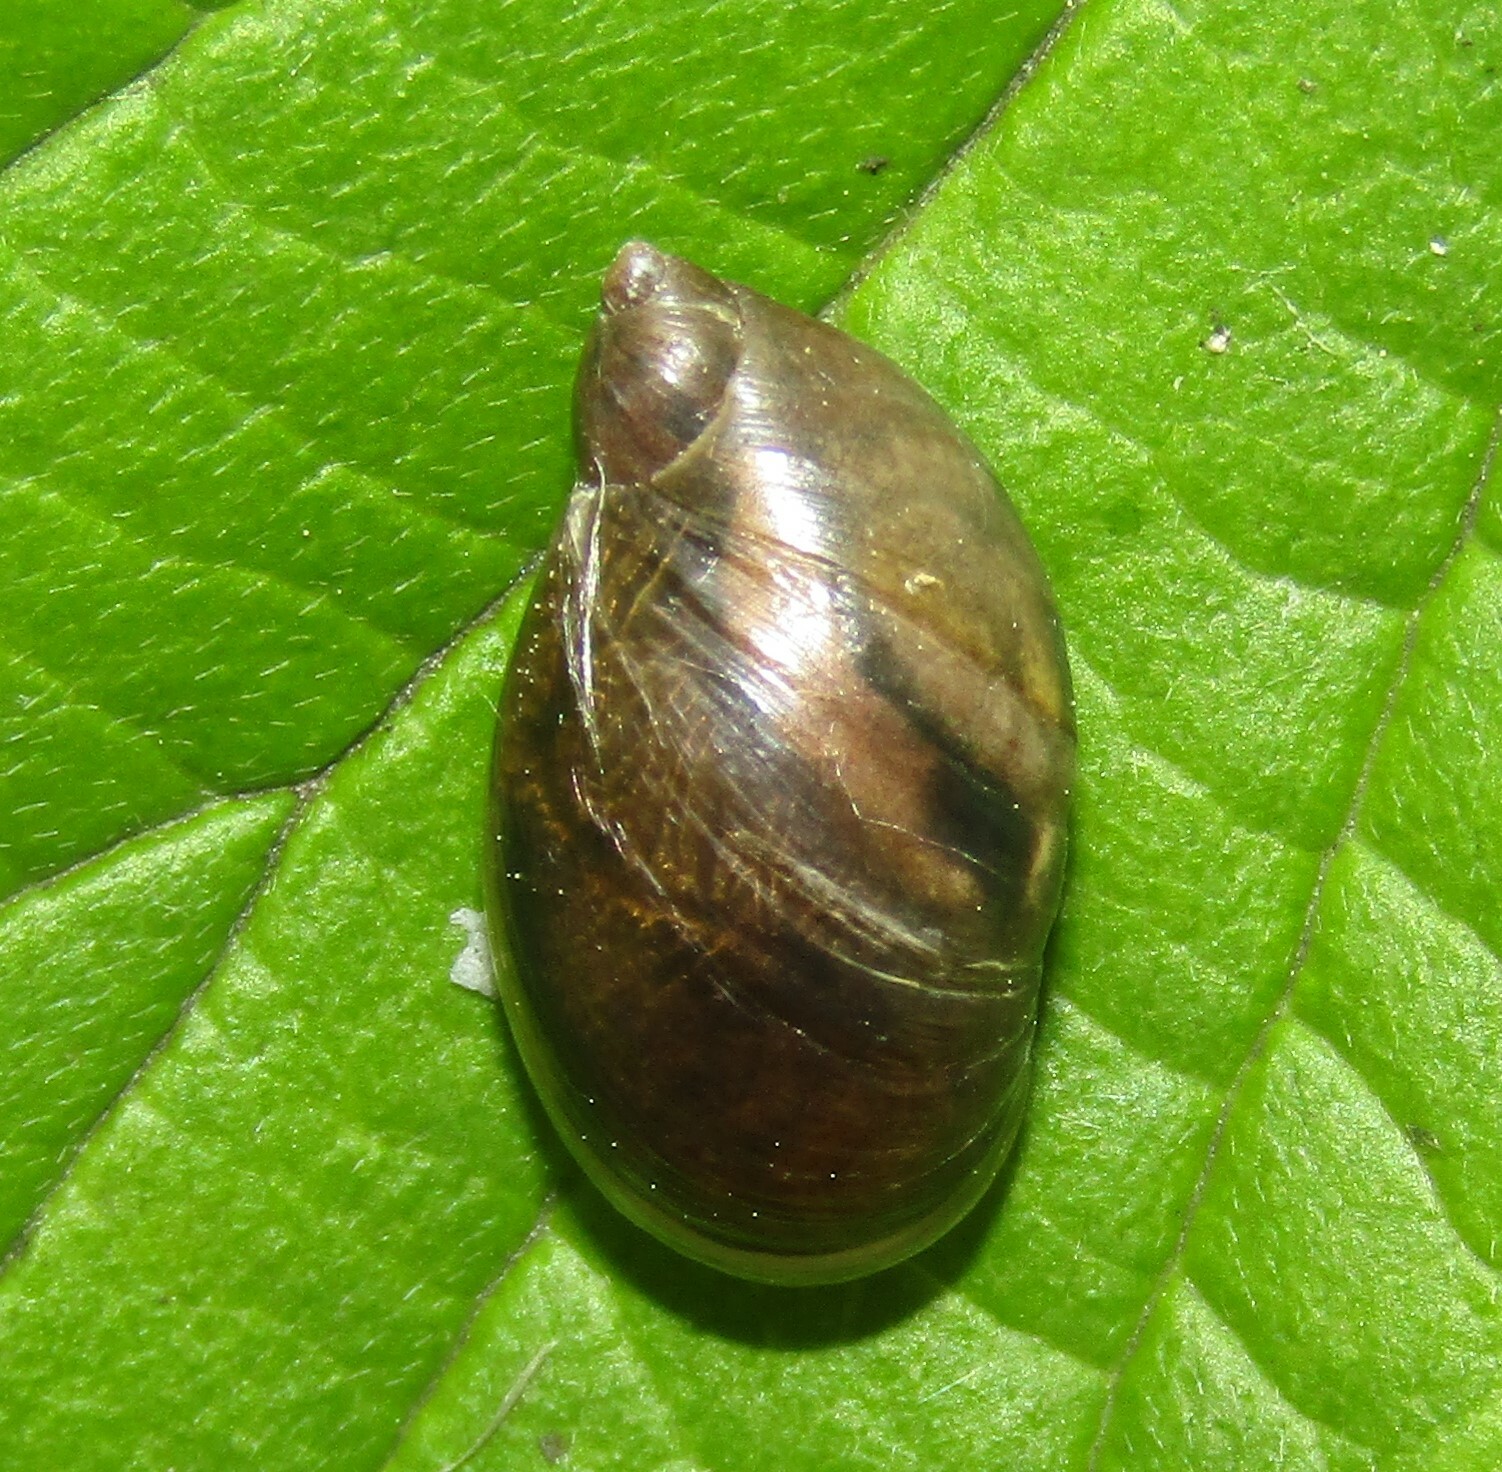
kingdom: Animalia
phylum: Mollusca
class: Gastropoda
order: Stylommatophora
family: Succineidae
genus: Succinea
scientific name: Succinea putris
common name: European ambersnail
